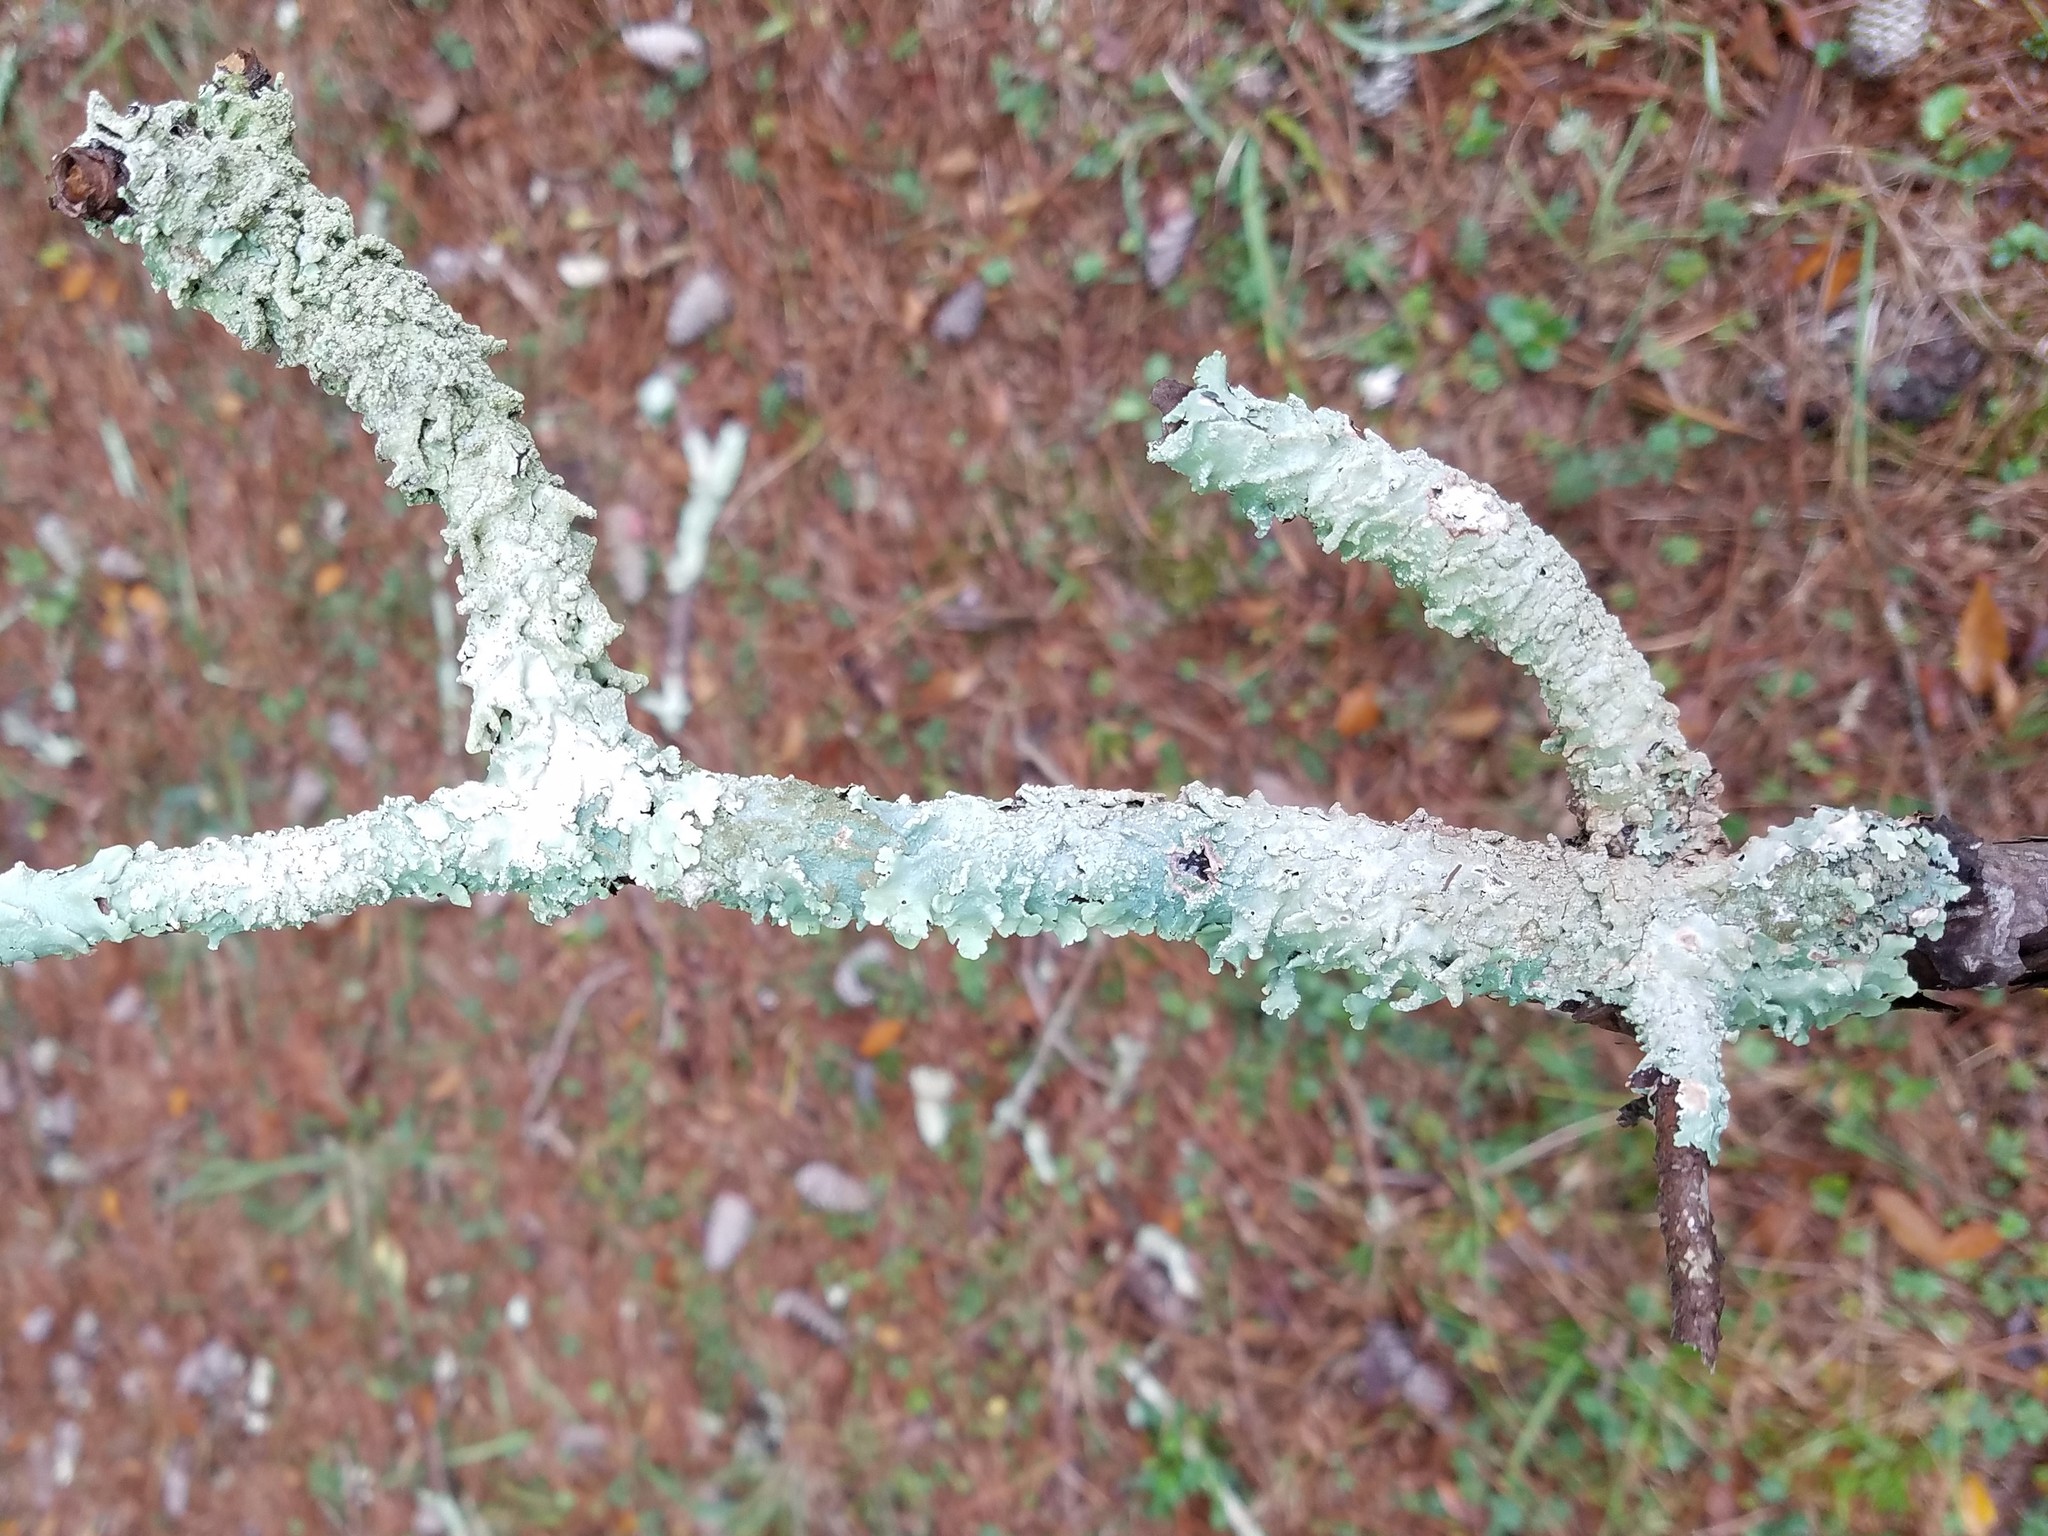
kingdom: Fungi
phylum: Ascomycota
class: Lecanoromycetes
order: Lecanorales
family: Parmeliaceae
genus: Canoparmelia
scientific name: Canoparmelia texana
